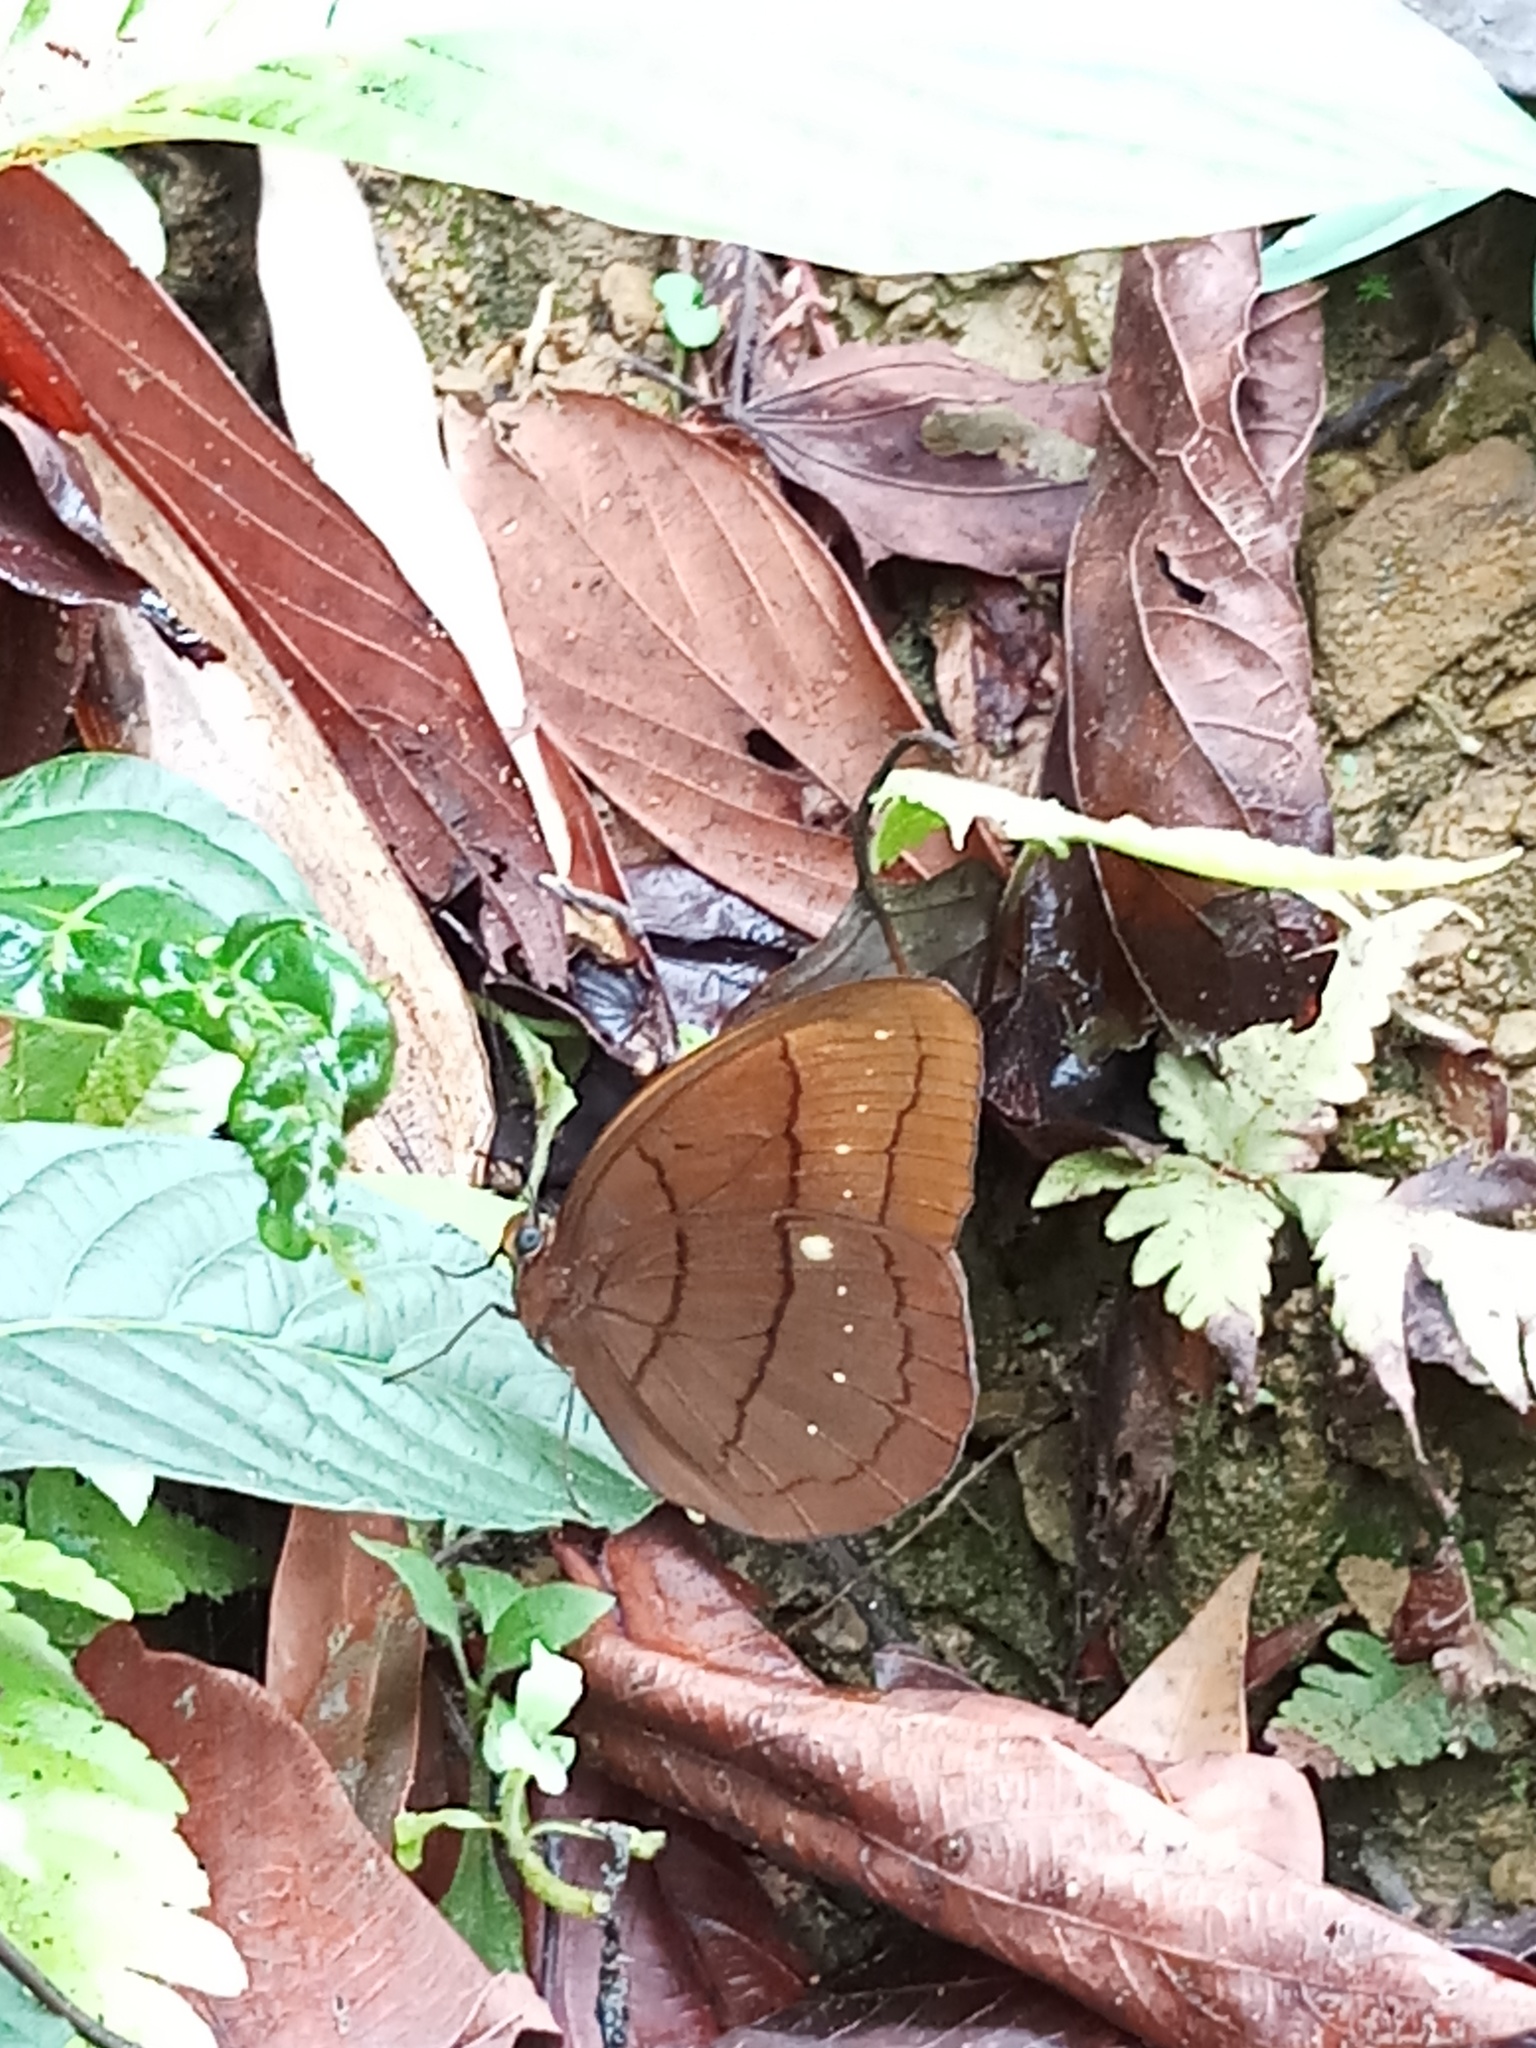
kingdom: Animalia
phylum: Arthropoda
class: Insecta
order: Lepidoptera
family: Nymphalidae
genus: Faunis
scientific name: Faunis eumeus
